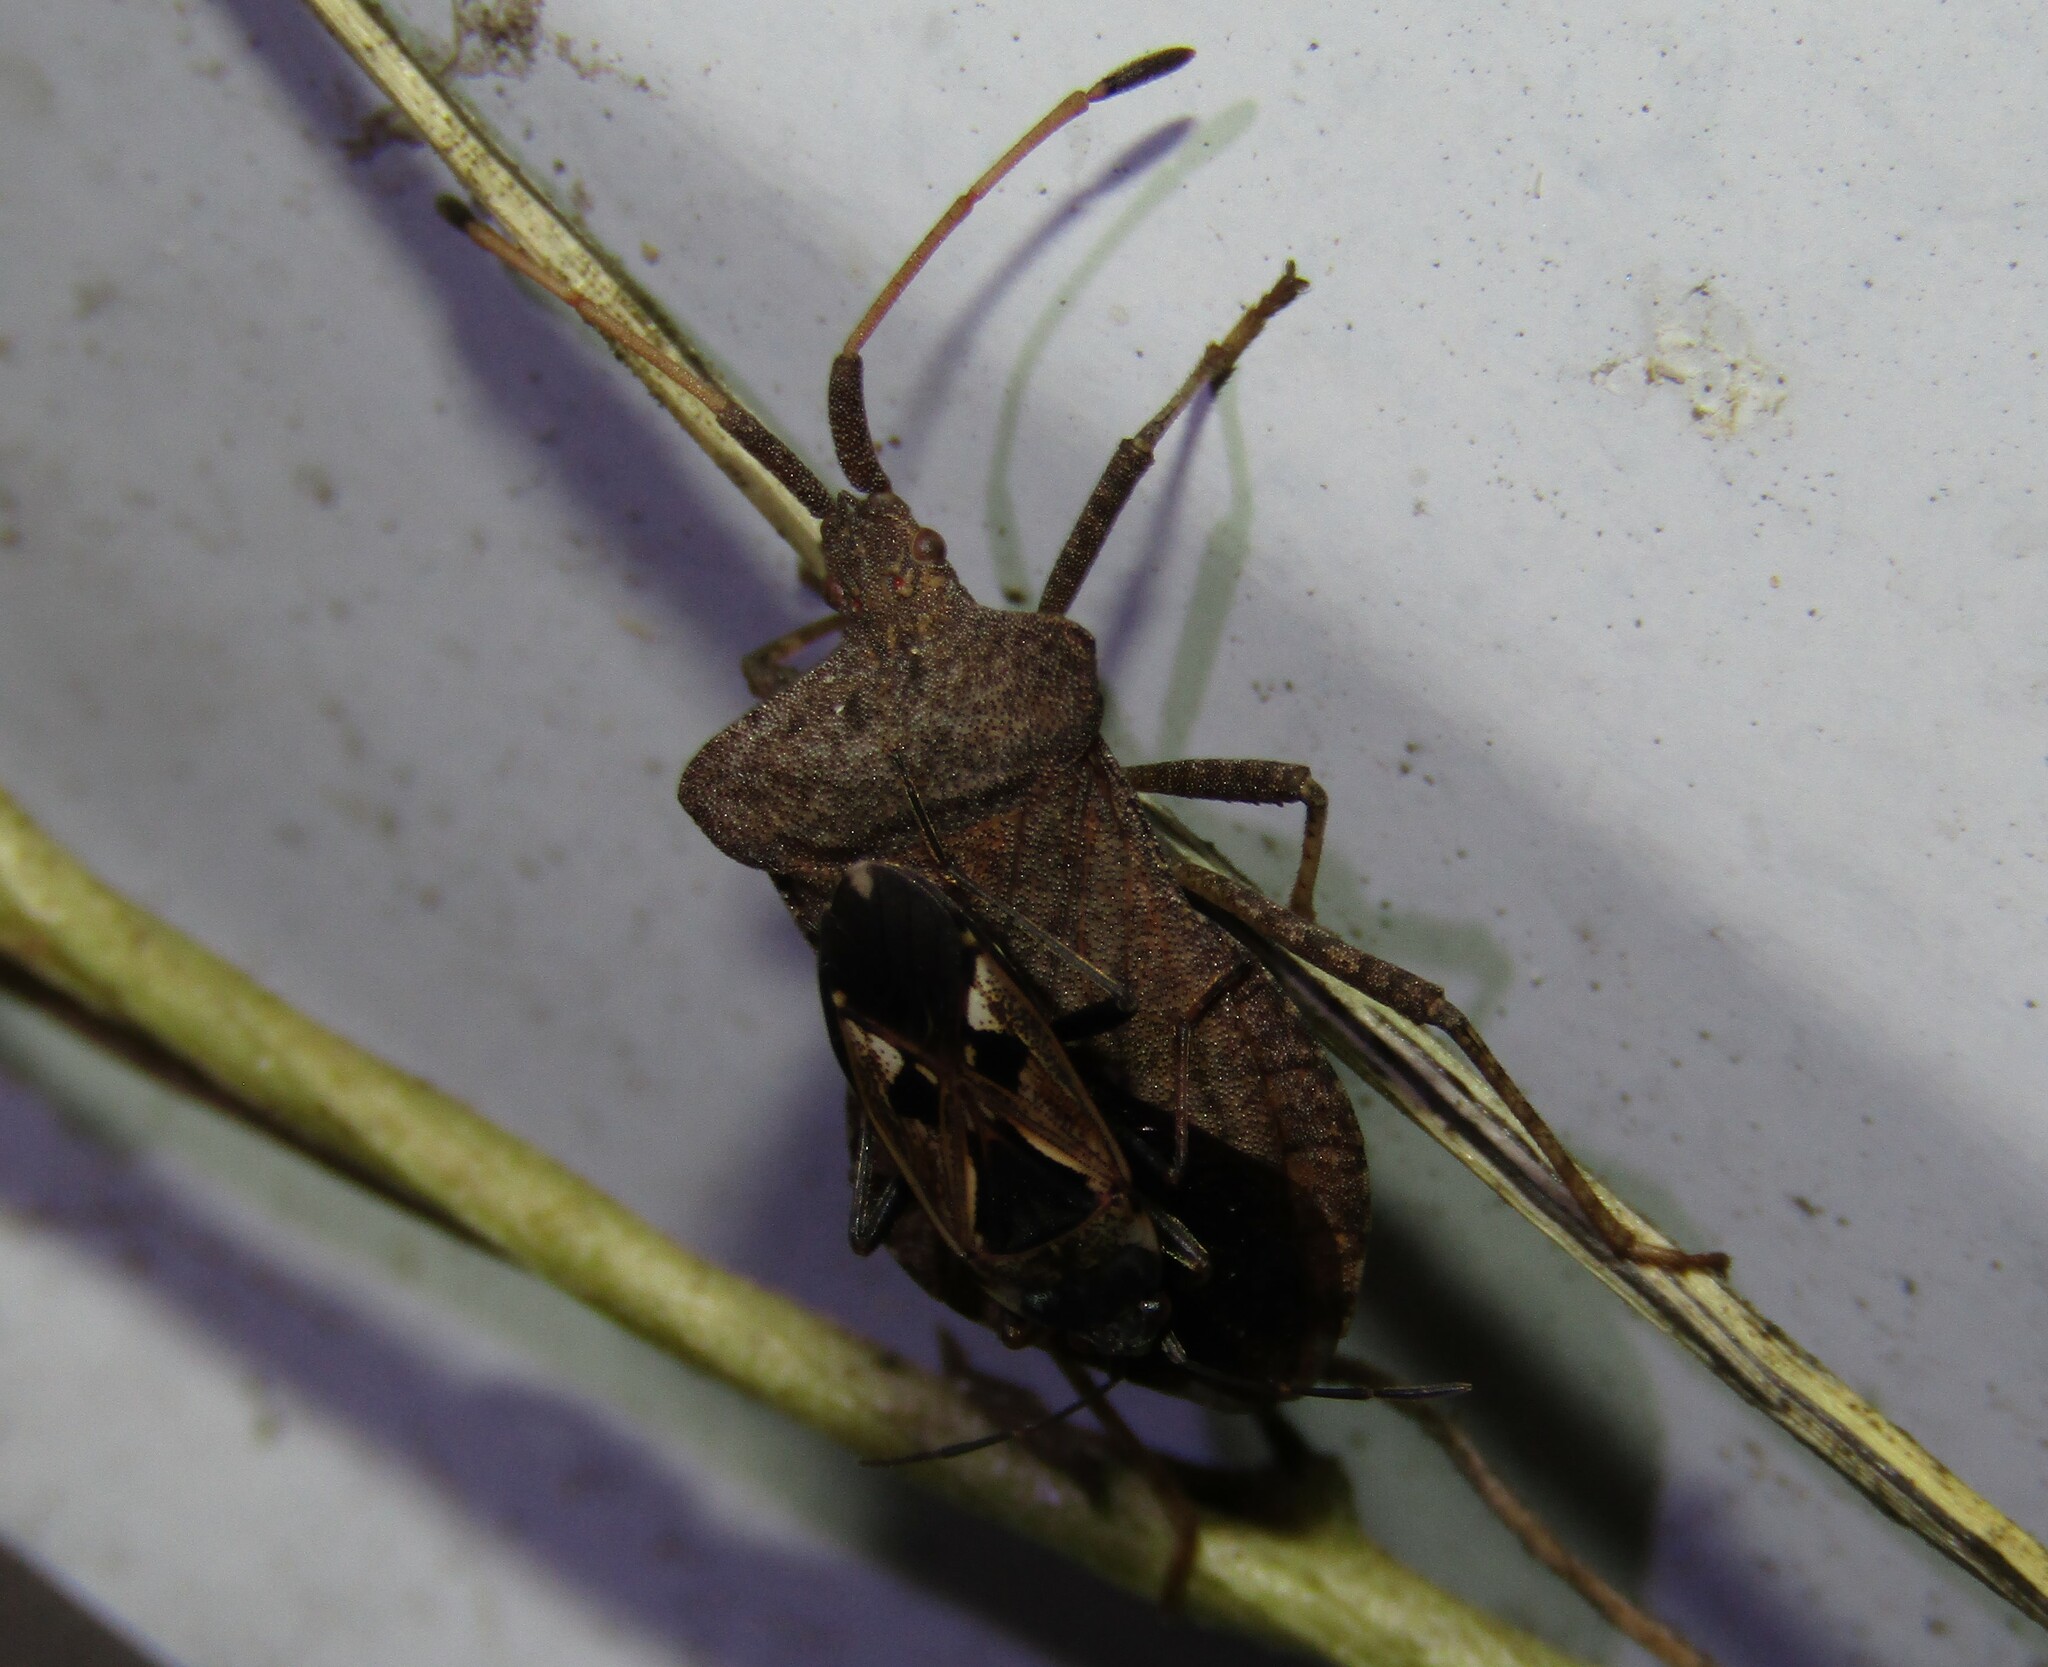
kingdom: Animalia
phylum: Arthropoda
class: Insecta
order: Hemiptera
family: Coreidae
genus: Coreus
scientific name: Coreus marginatus
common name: Dock bug
